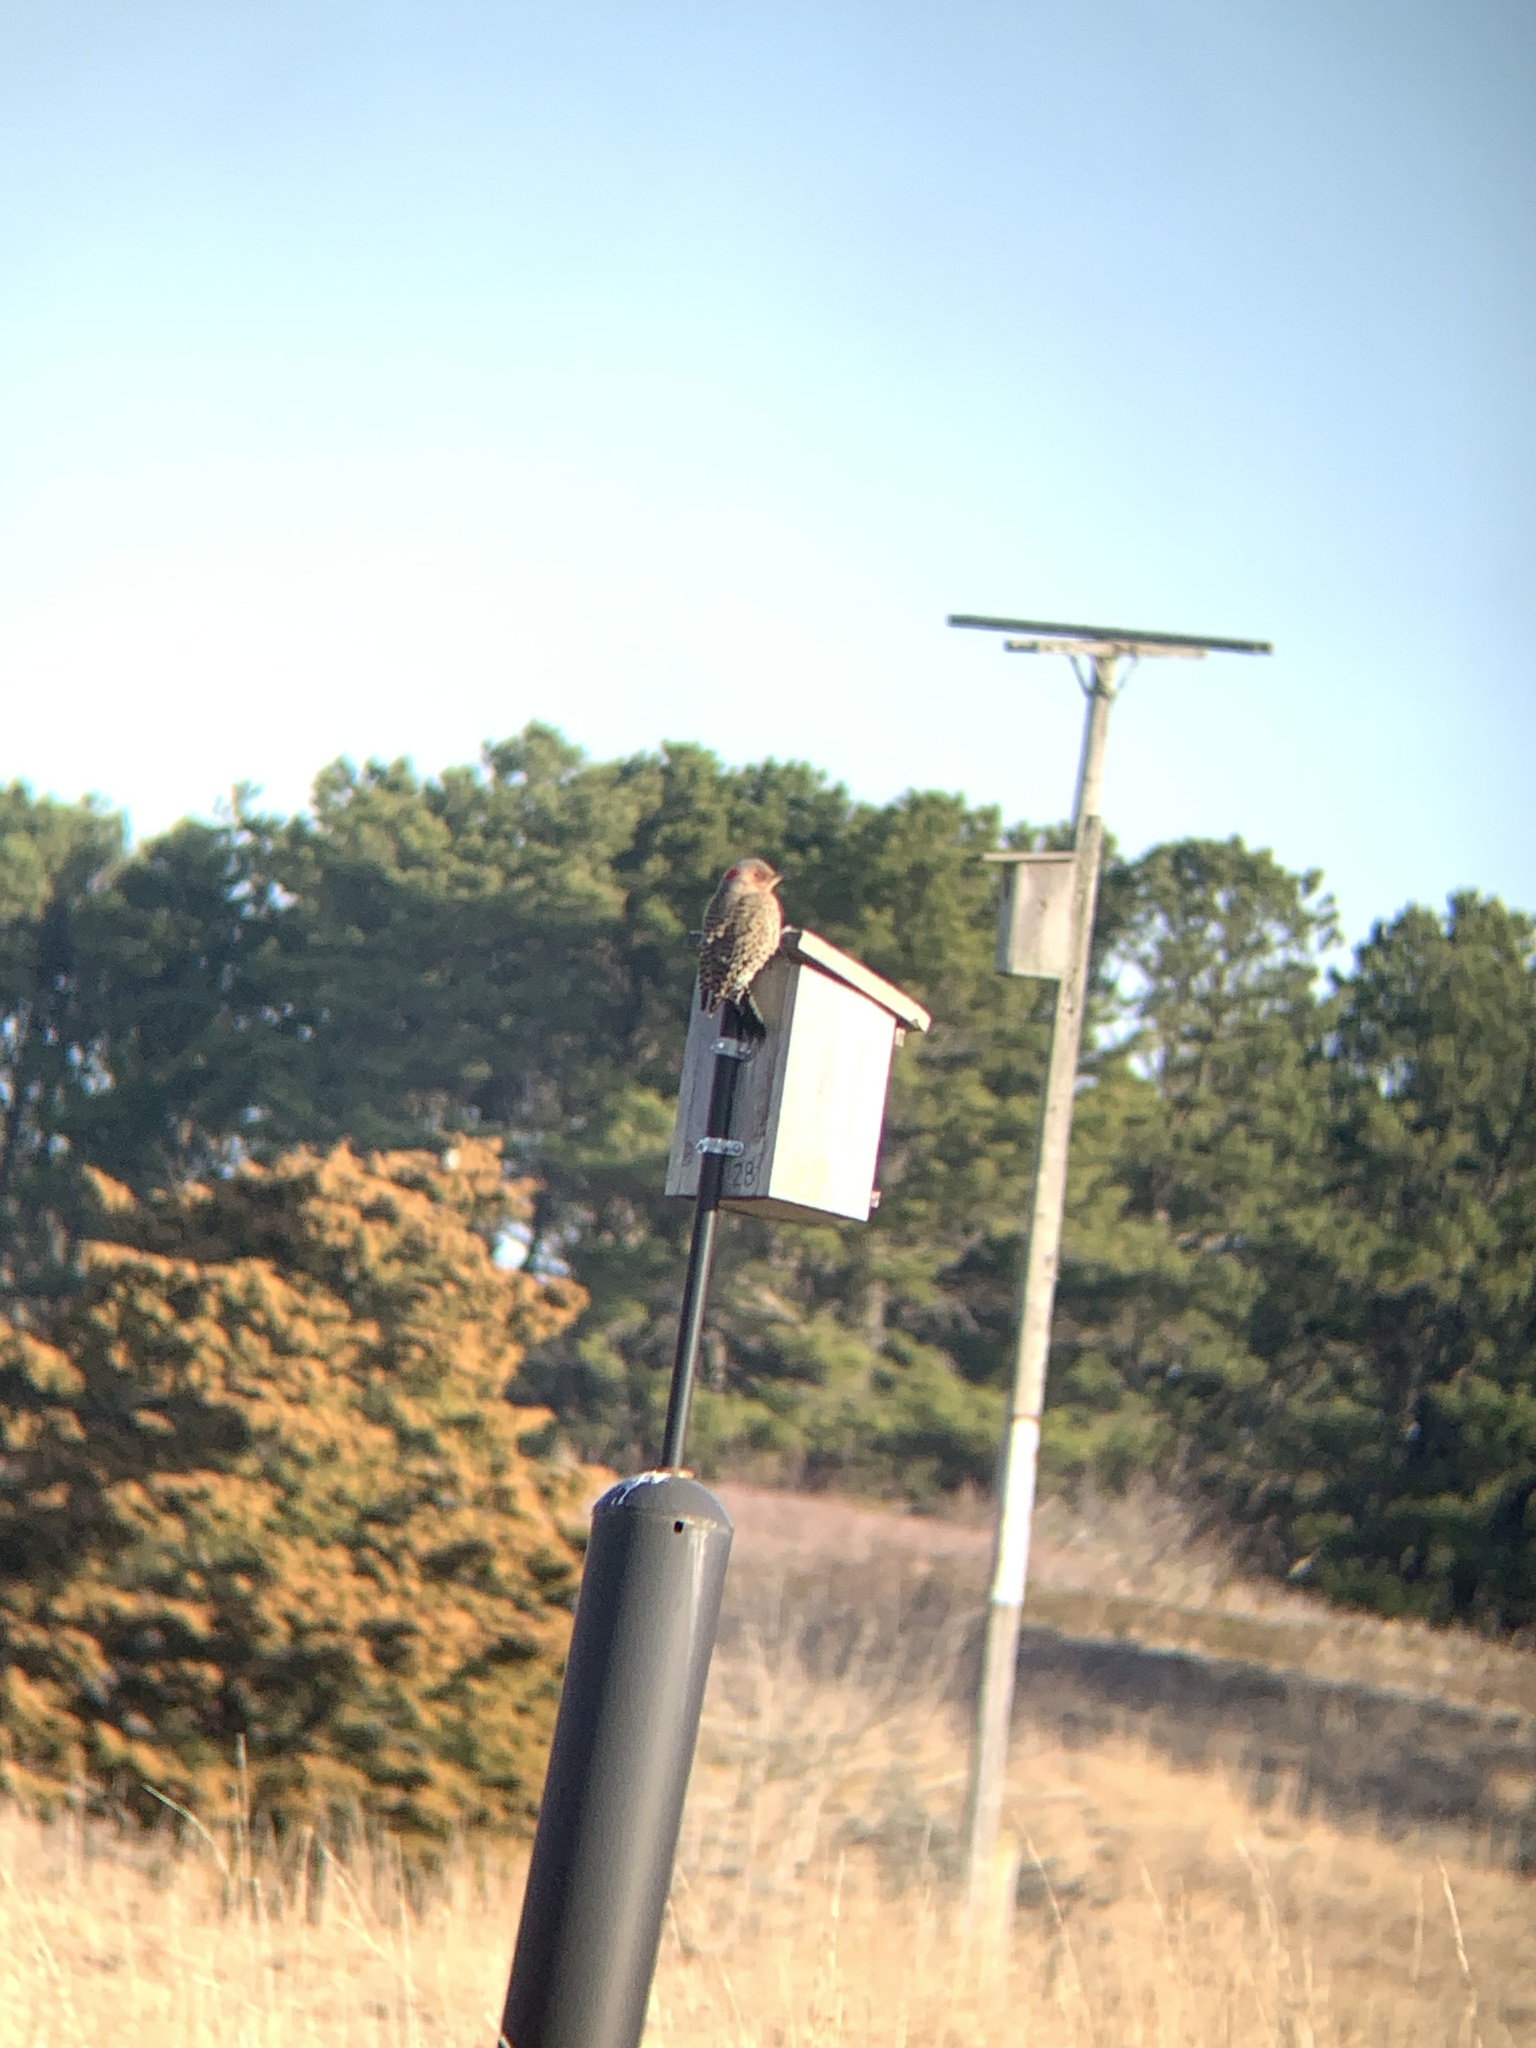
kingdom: Animalia
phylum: Chordata
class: Aves
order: Piciformes
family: Picidae
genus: Colaptes
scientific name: Colaptes auratus
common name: Northern flicker
